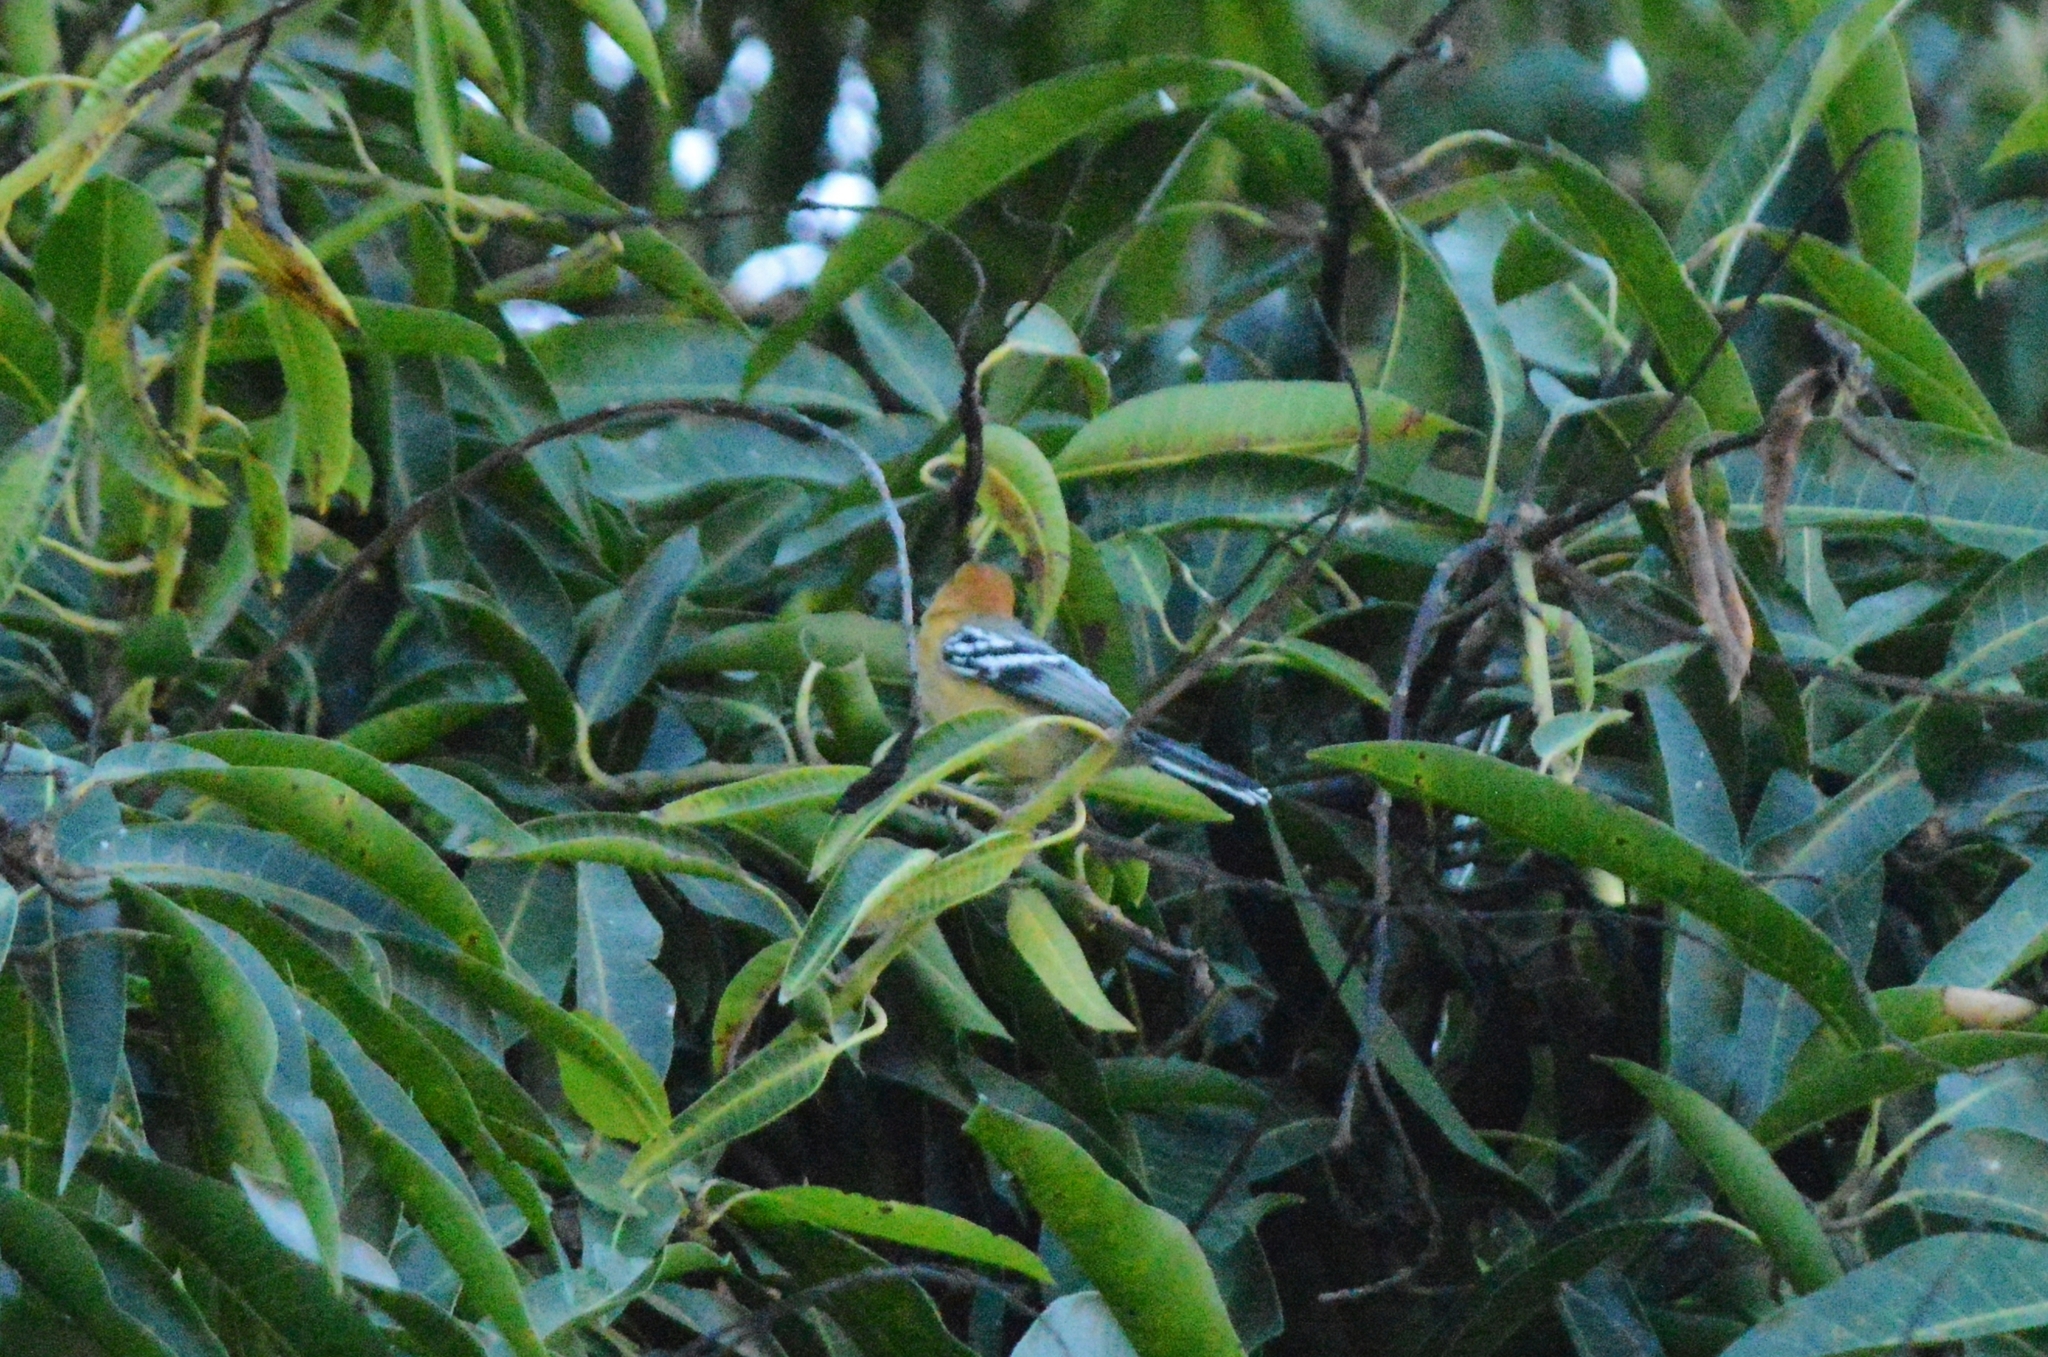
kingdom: Animalia
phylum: Chordata
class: Aves
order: Passeriformes
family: Thamnophilidae
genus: Herpsilochmus
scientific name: Herpsilochmus longirostris
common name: Large-billed antwren
